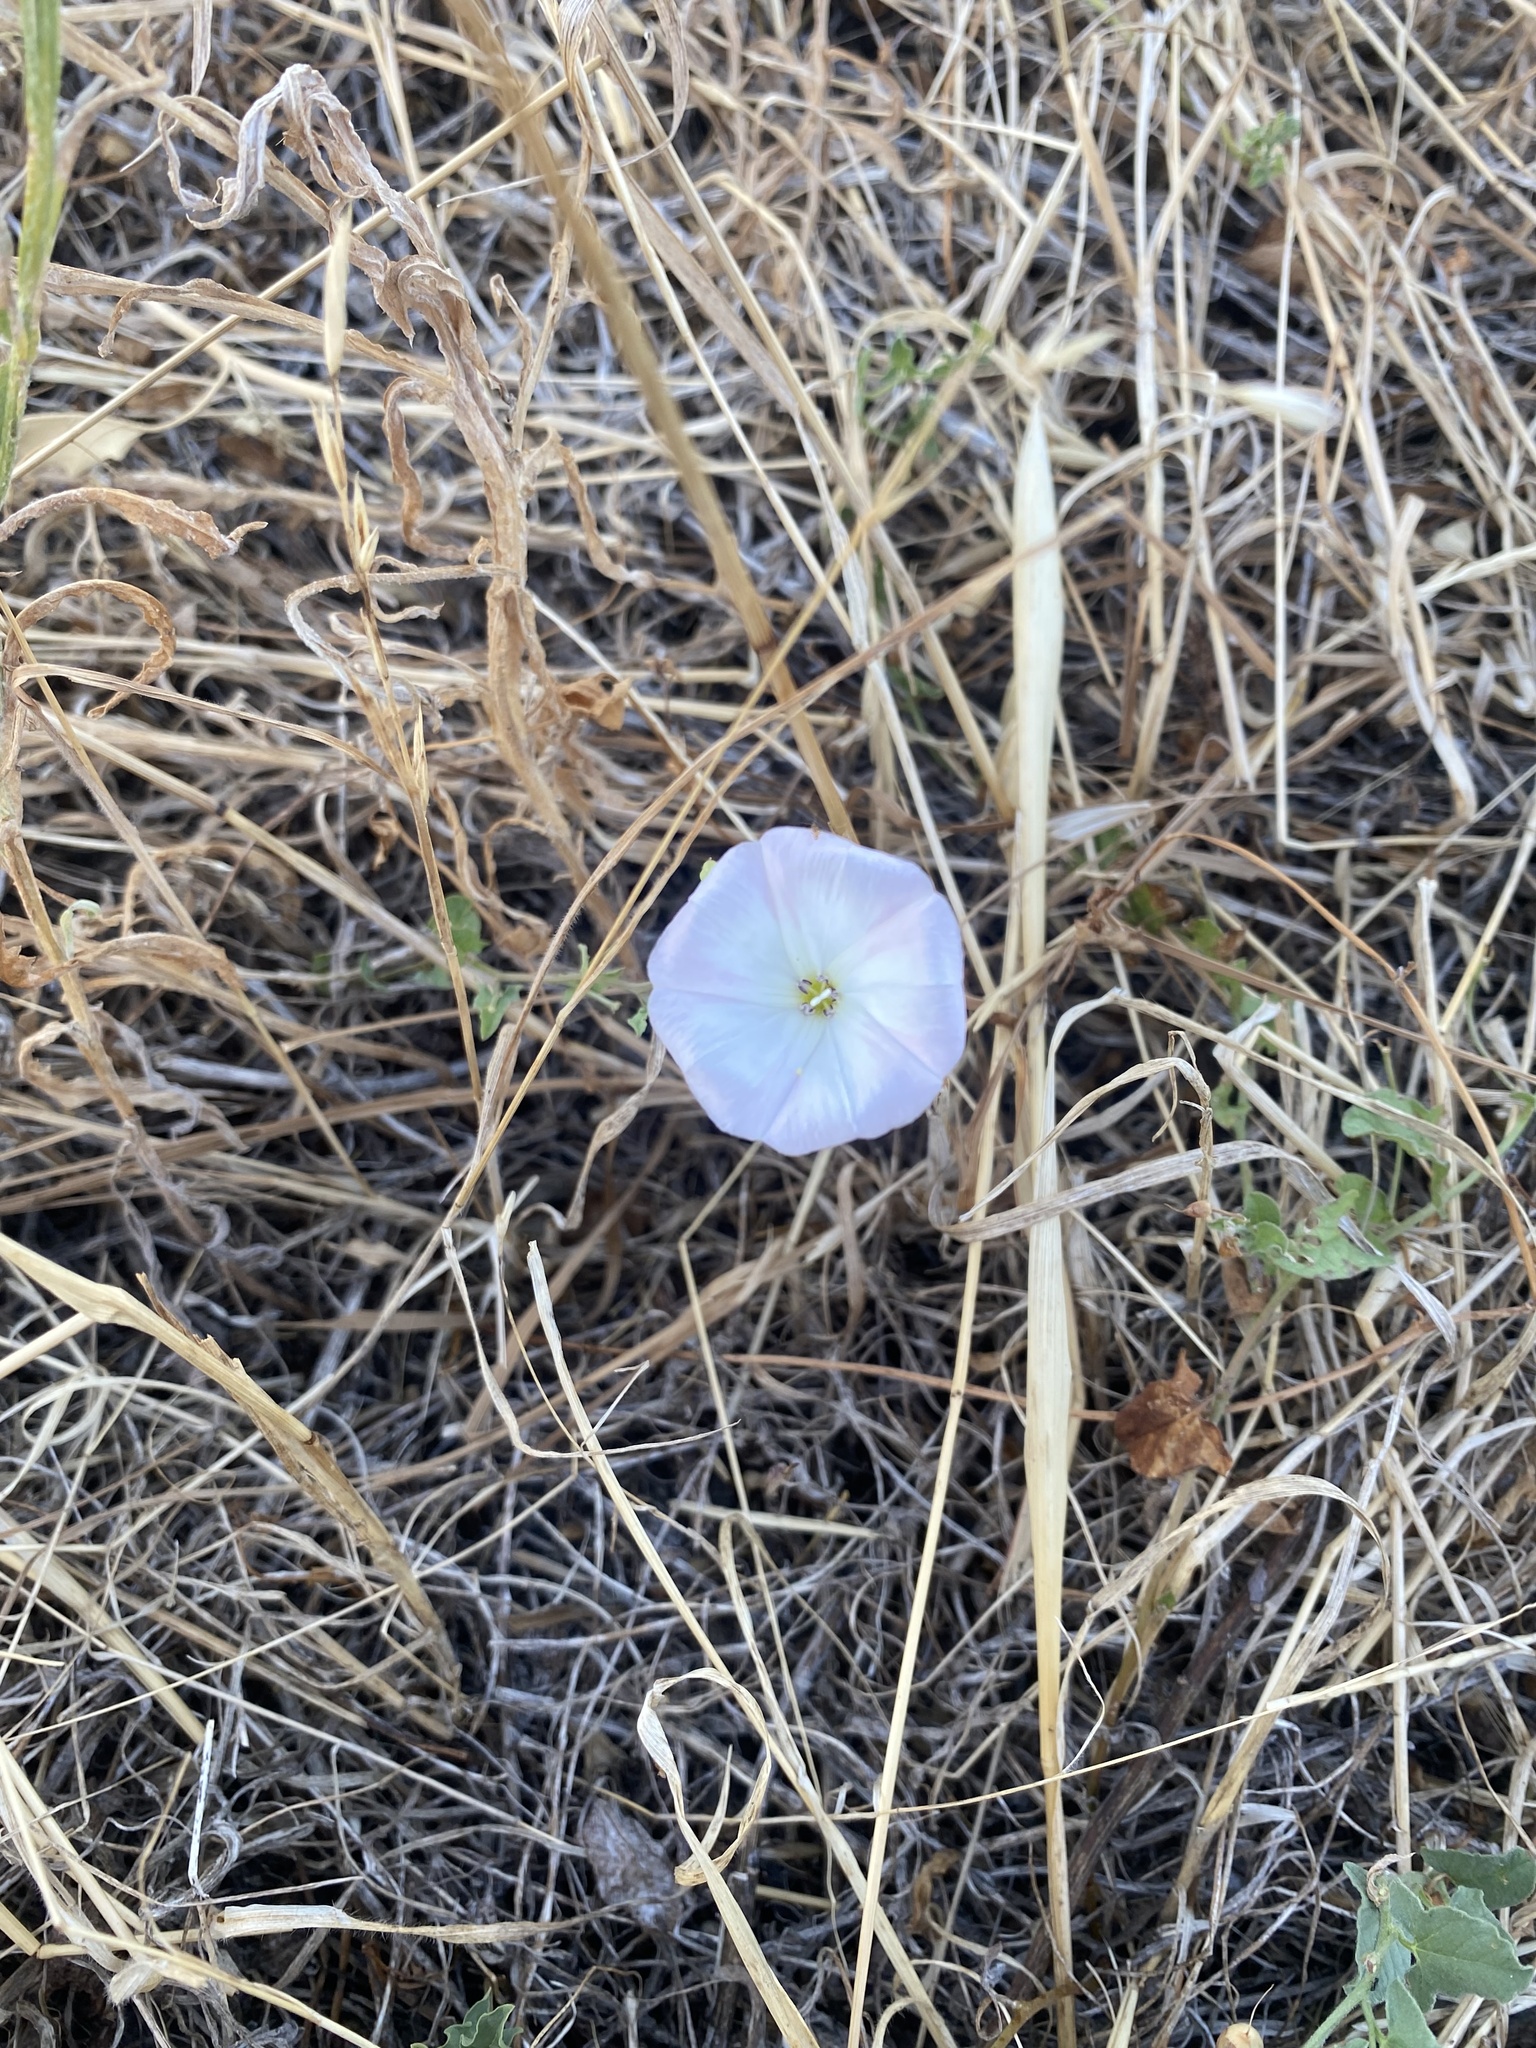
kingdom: Plantae
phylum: Tracheophyta
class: Magnoliopsida
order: Solanales
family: Convolvulaceae
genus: Convolvulus
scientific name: Convolvulus arvensis
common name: Field bindweed
